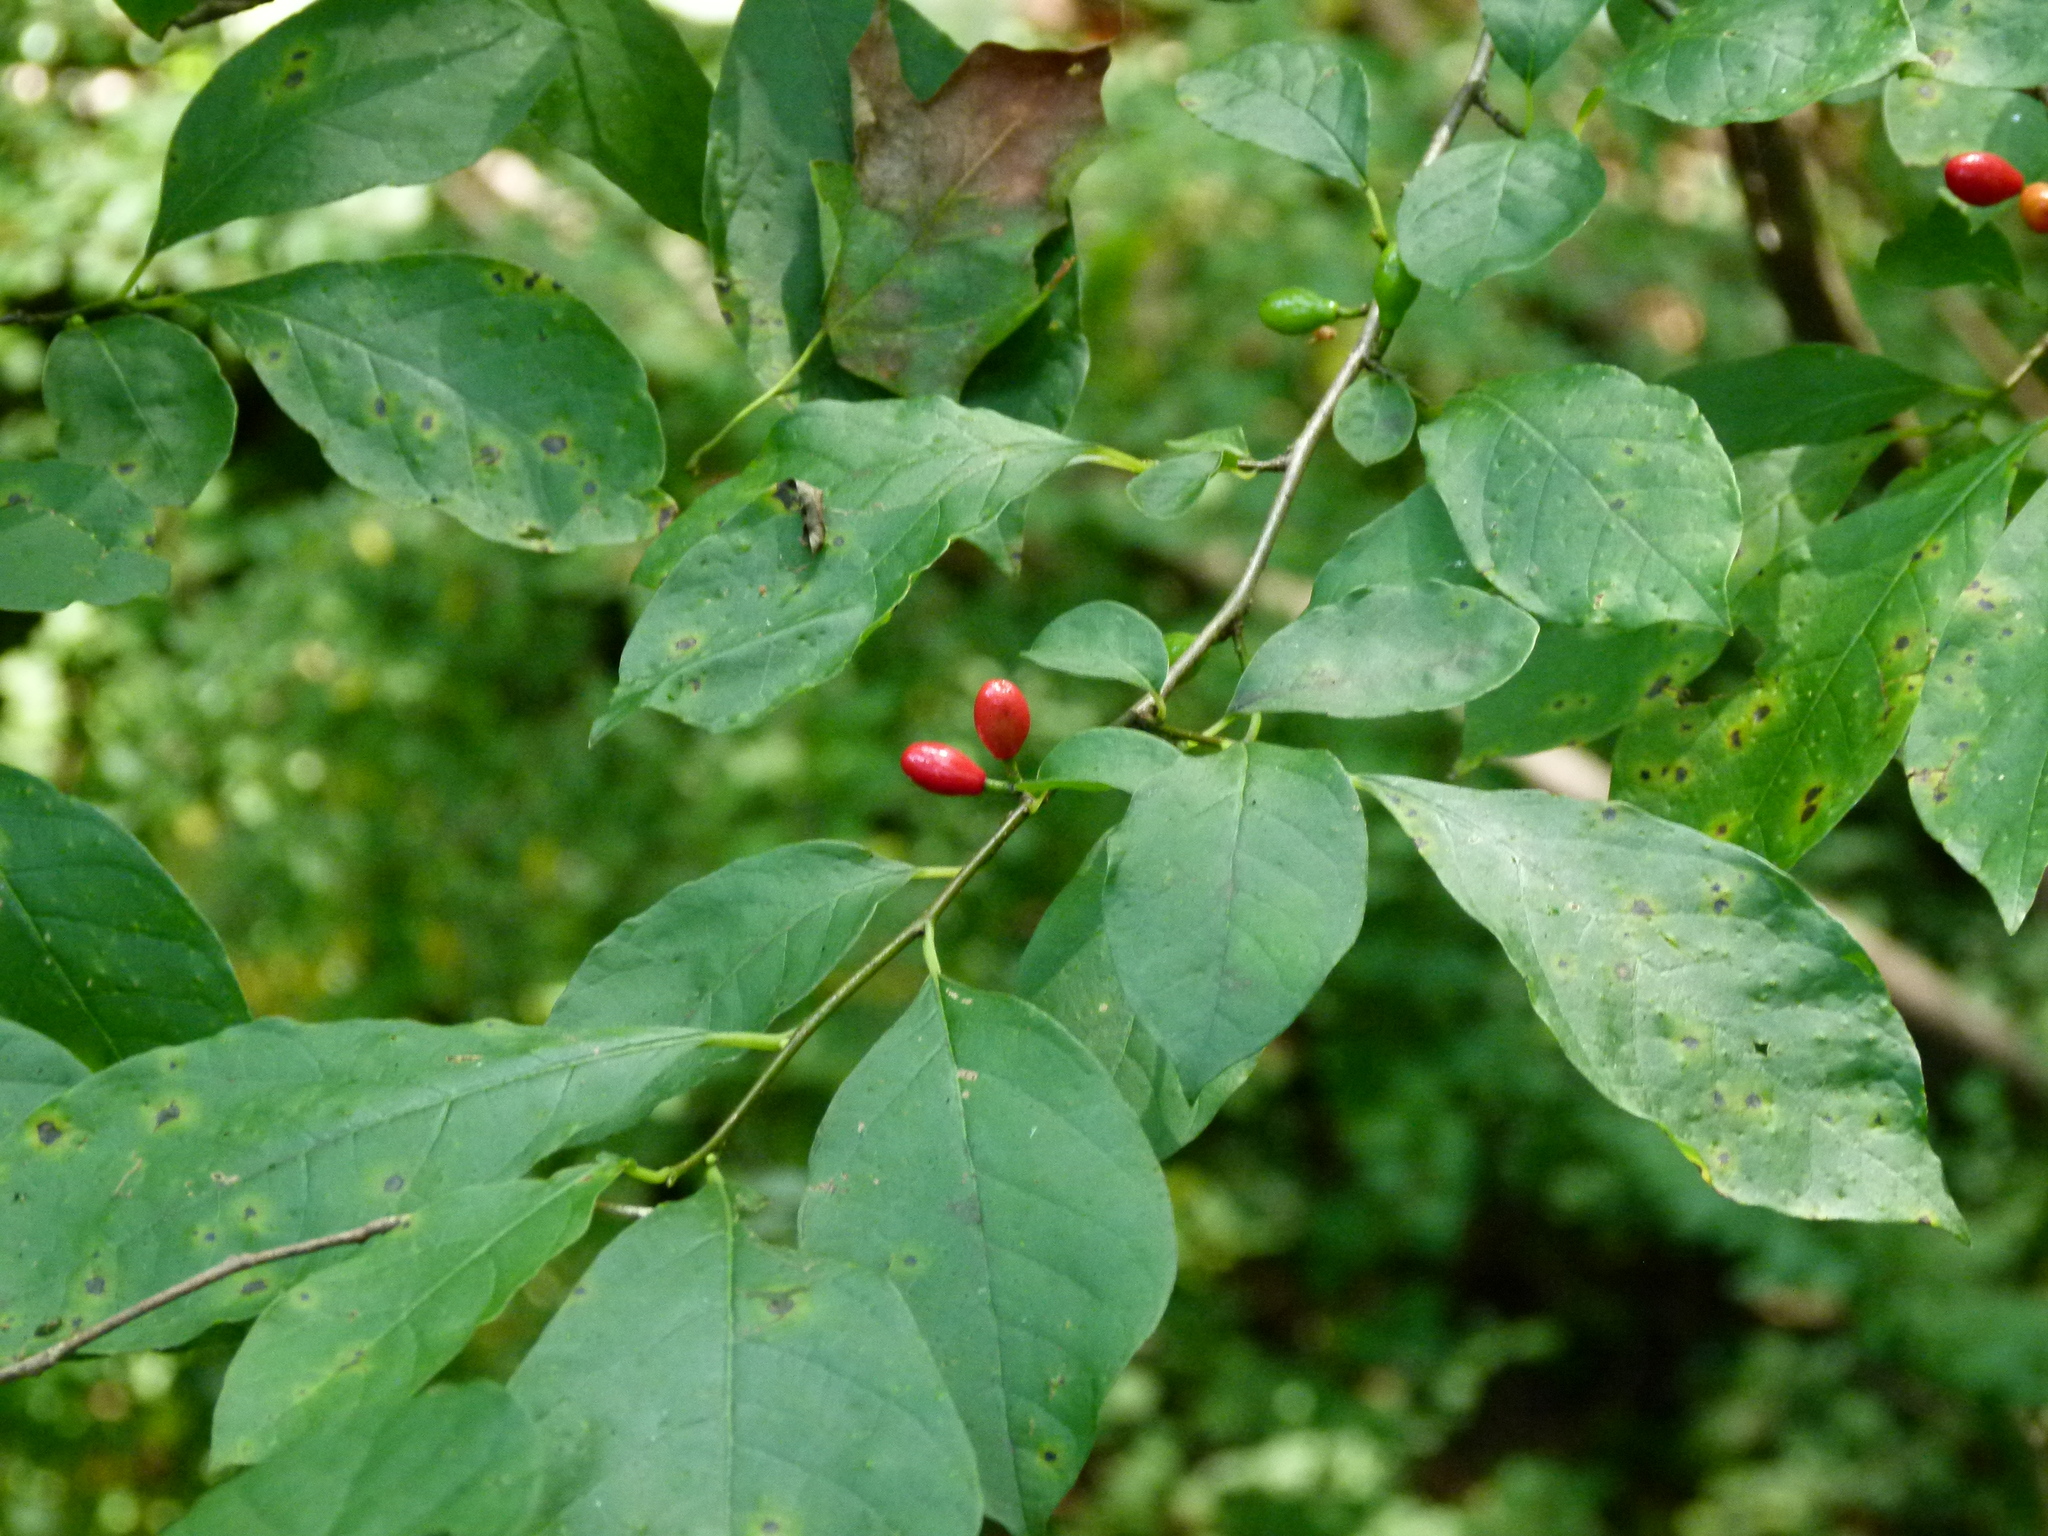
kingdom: Plantae
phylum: Tracheophyta
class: Magnoliopsida
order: Laurales
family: Lauraceae
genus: Lindera
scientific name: Lindera benzoin
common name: Spicebush
